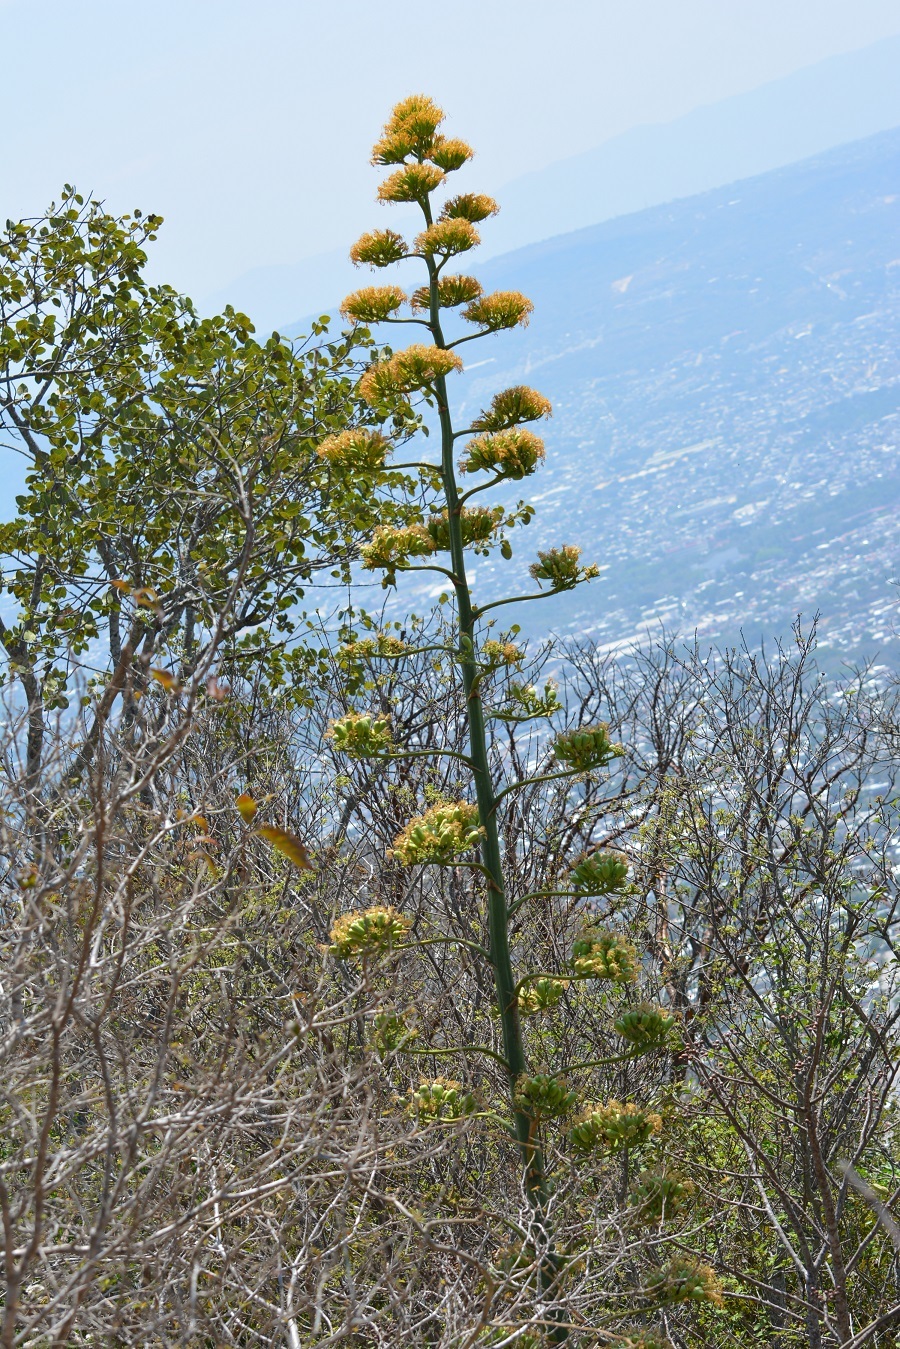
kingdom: Plantae
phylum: Tracheophyta
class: Liliopsida
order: Asparagales
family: Asparagaceae
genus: Agave
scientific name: Agave kewensis
